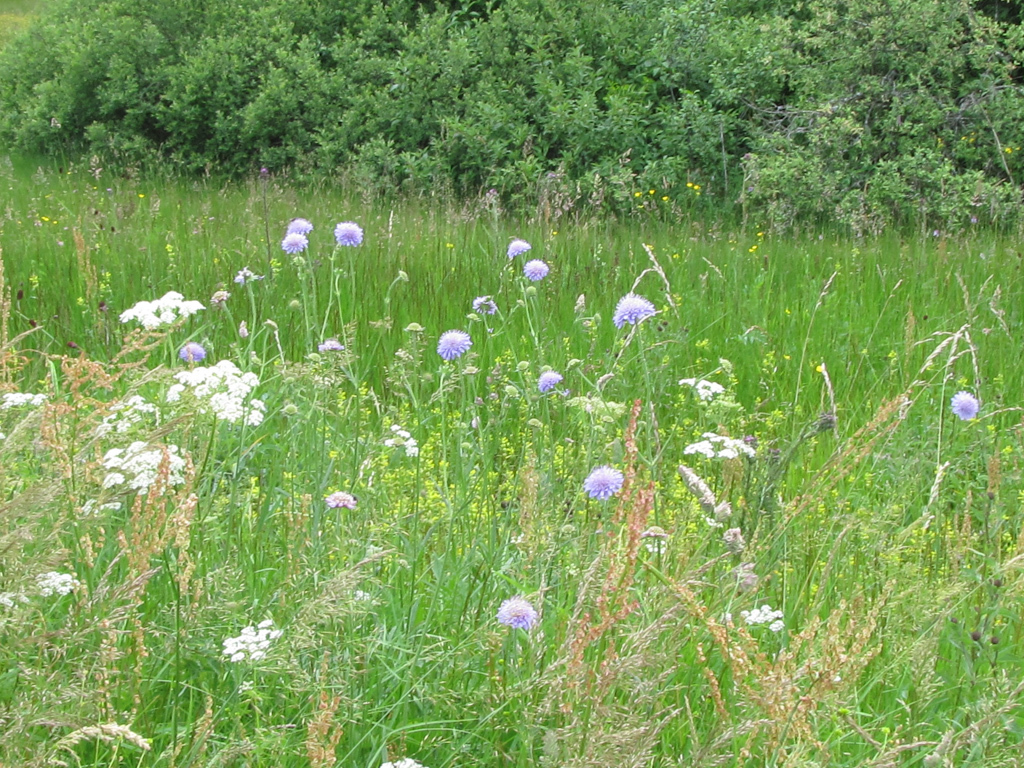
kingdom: Plantae
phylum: Tracheophyta
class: Magnoliopsida
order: Dipsacales
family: Caprifoliaceae
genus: Knautia
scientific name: Knautia arvensis
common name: Field scabiosa
